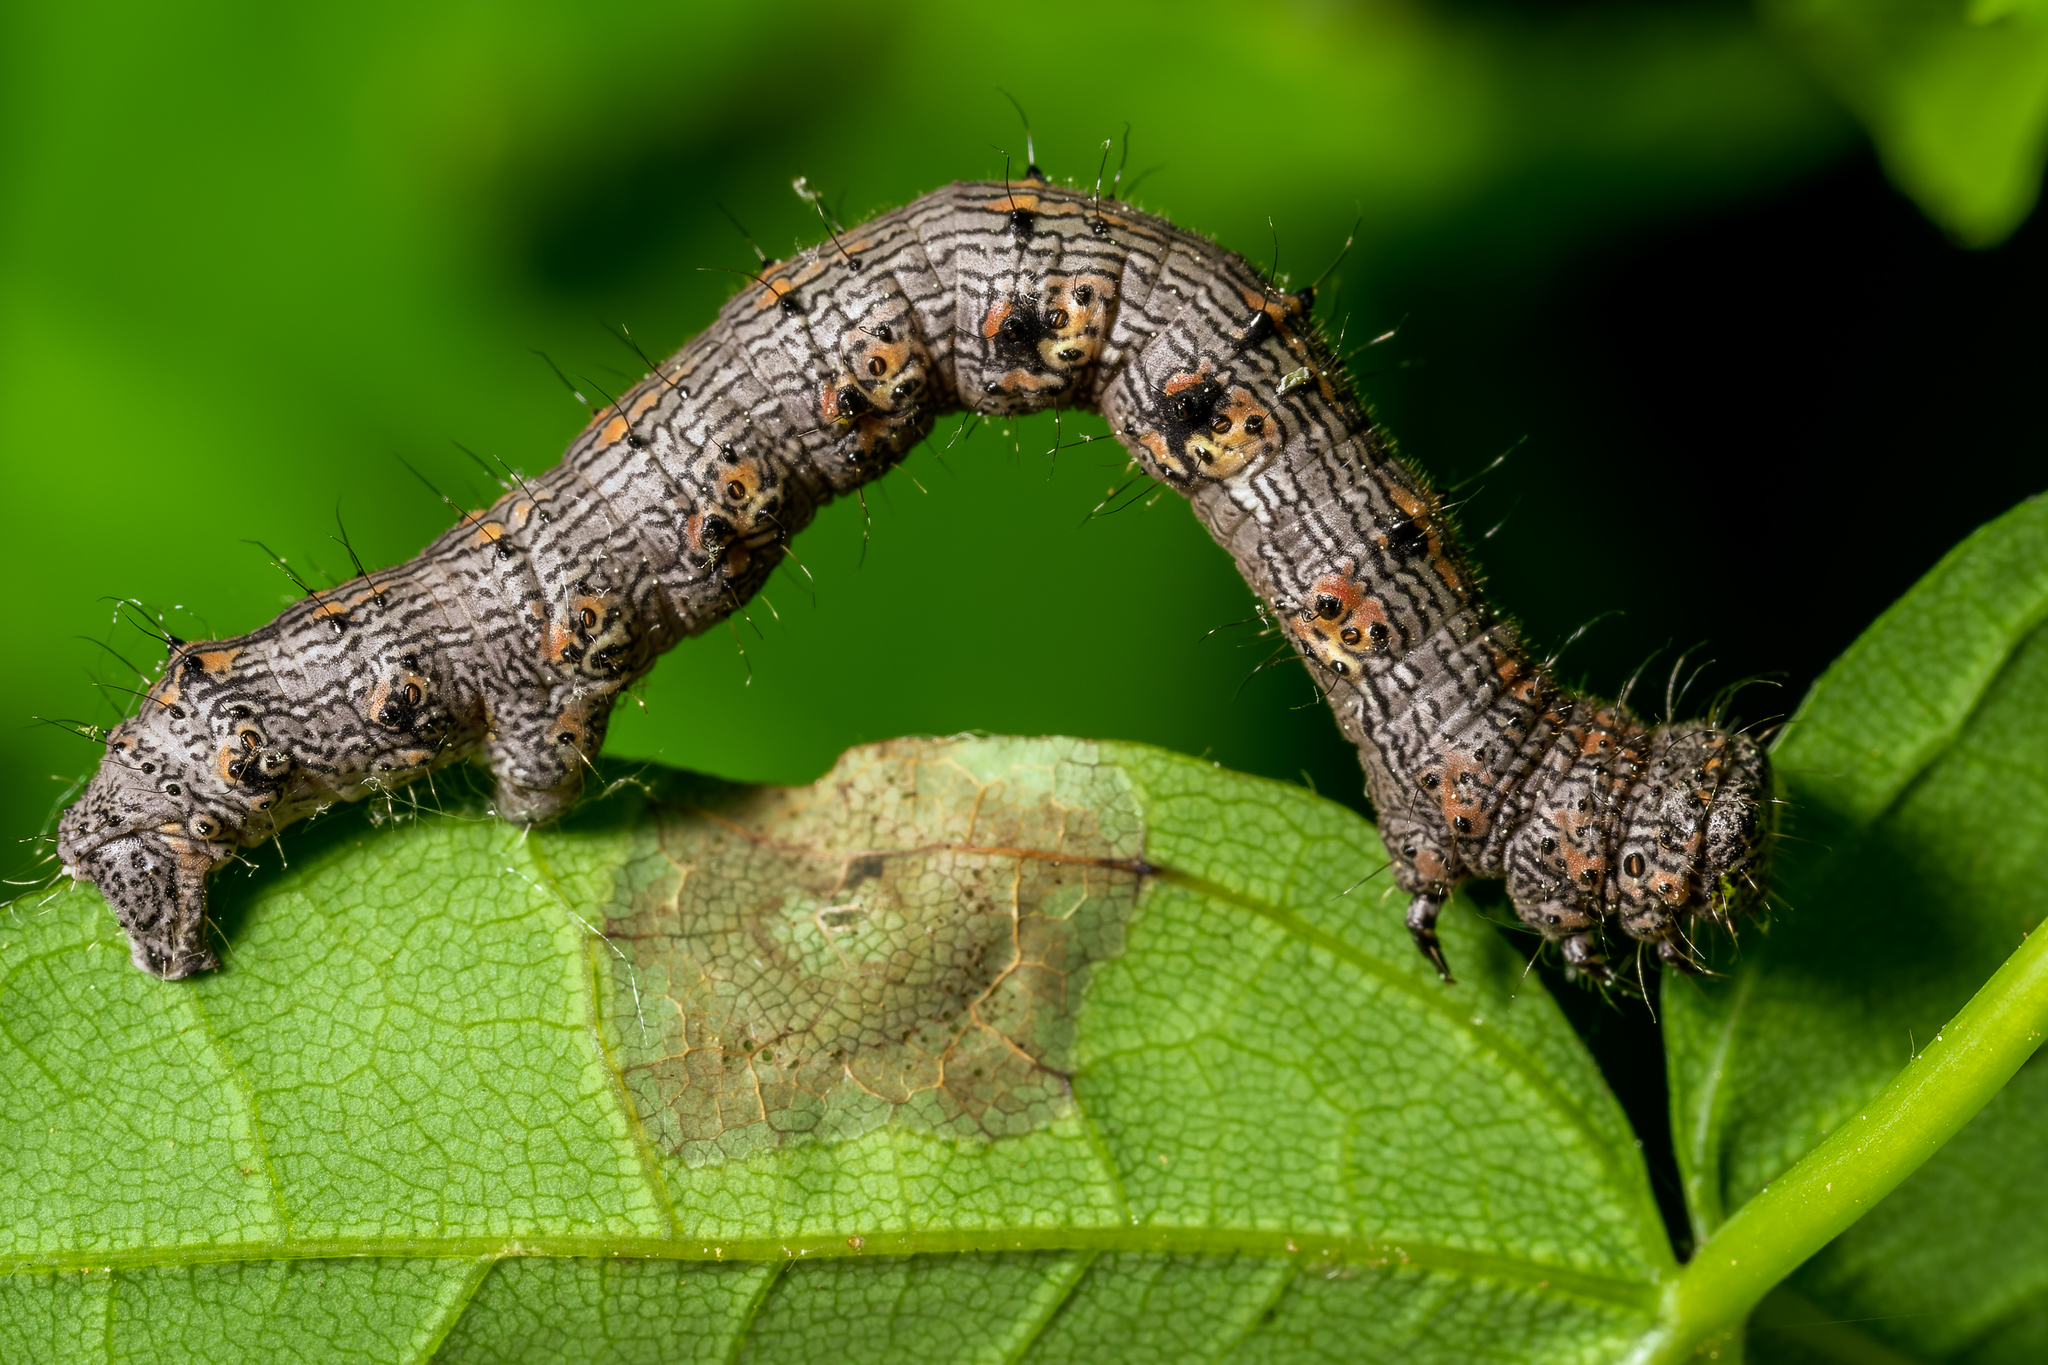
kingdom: Animalia
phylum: Arthropoda
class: Insecta
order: Lepidoptera
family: Geometridae
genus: Phigalia
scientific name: Phigalia titea
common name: Spiny looper
